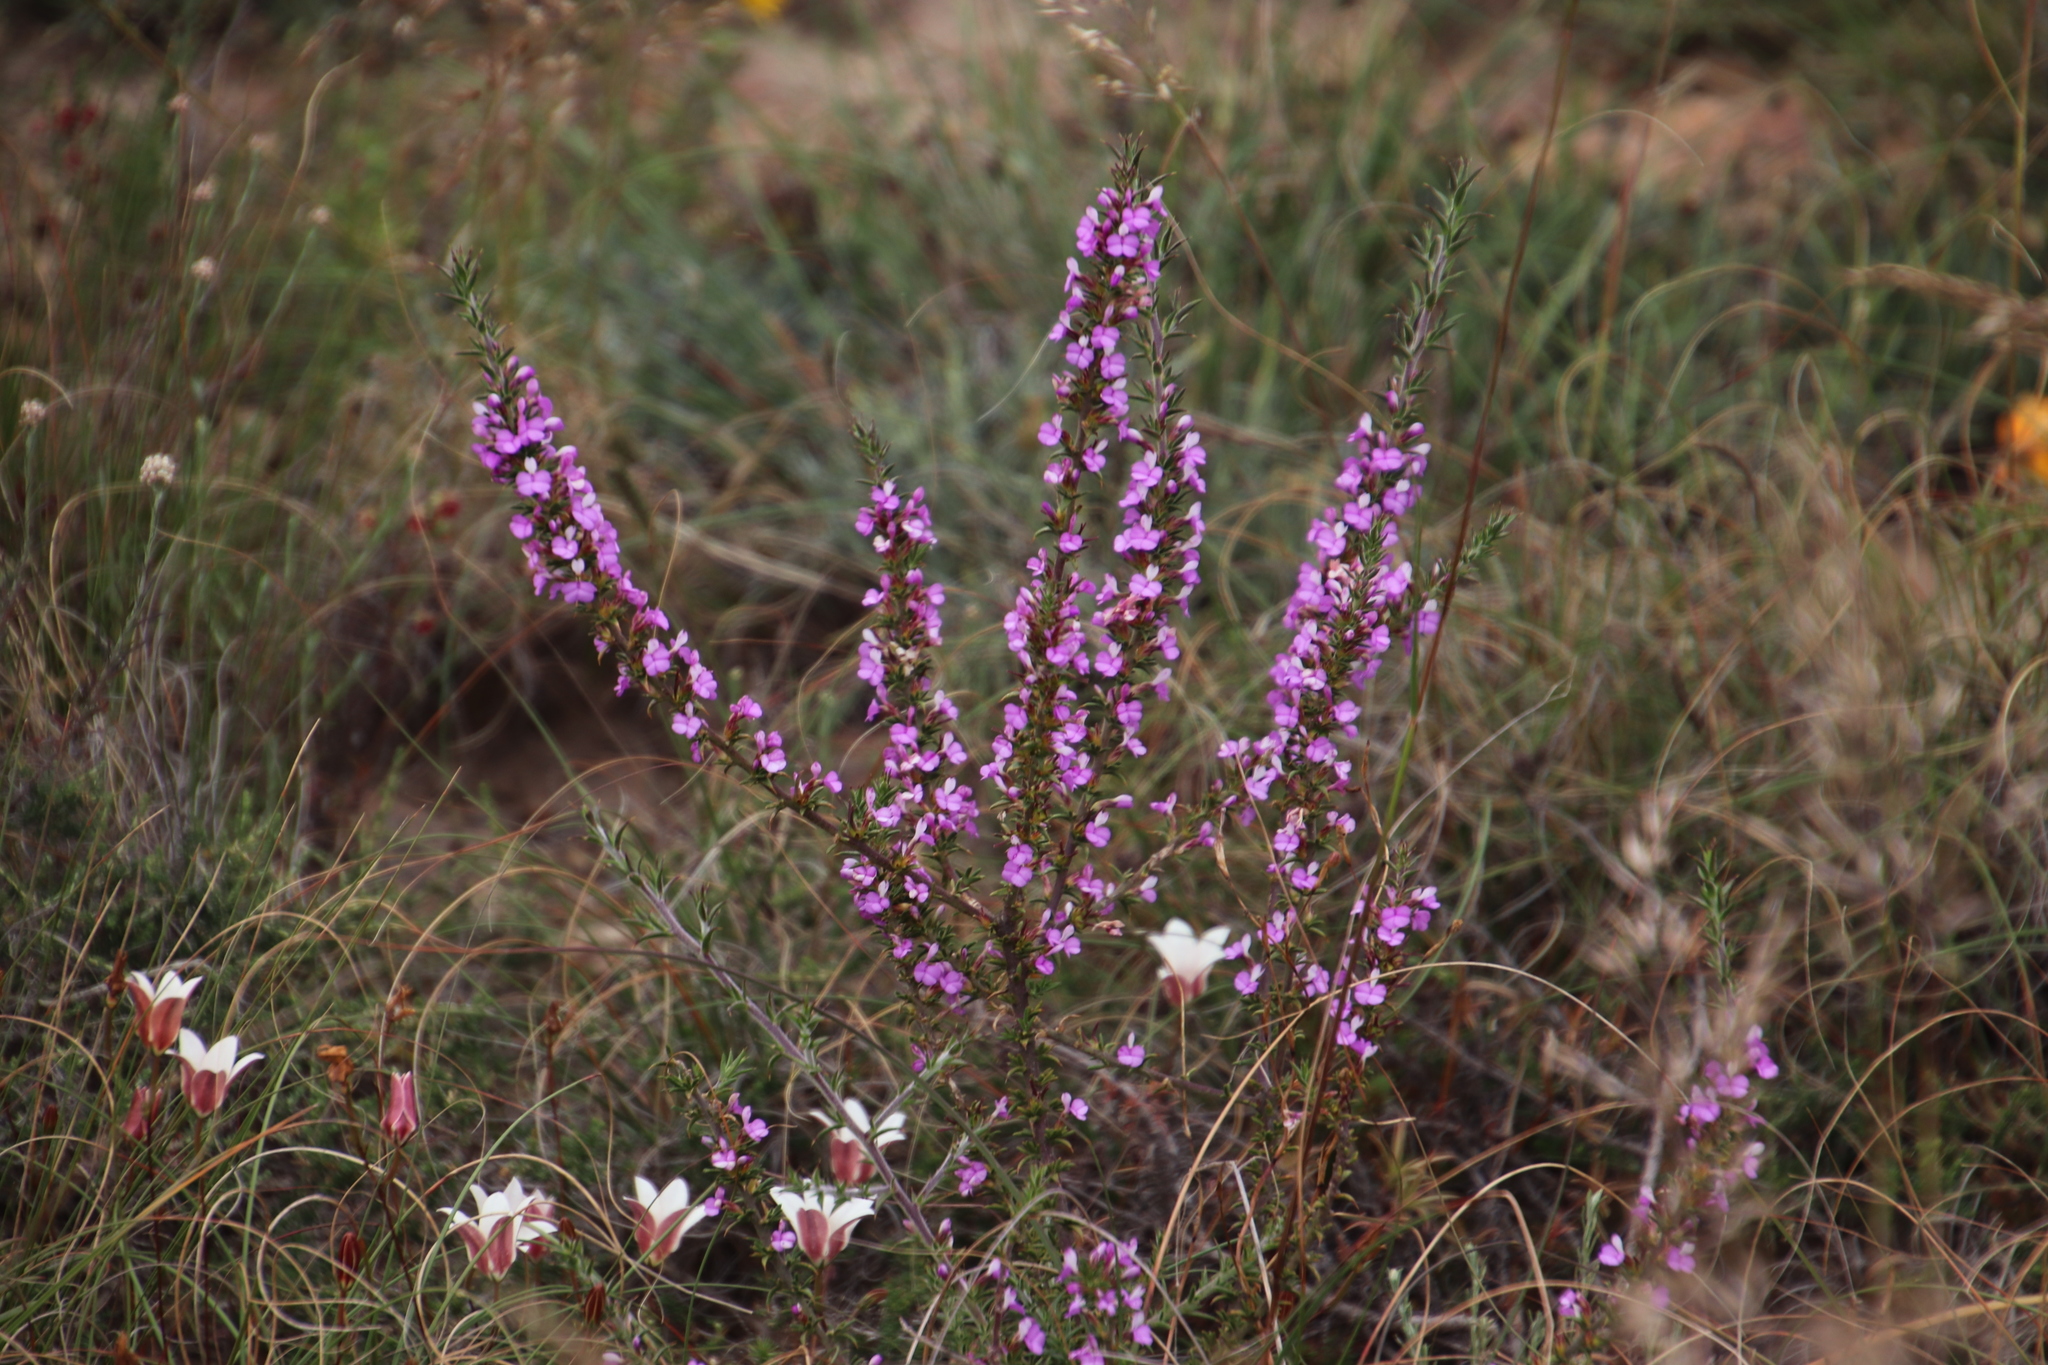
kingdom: Plantae
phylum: Tracheophyta
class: Magnoliopsida
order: Fabales
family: Polygalaceae
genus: Muraltia
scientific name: Muraltia heisteria
